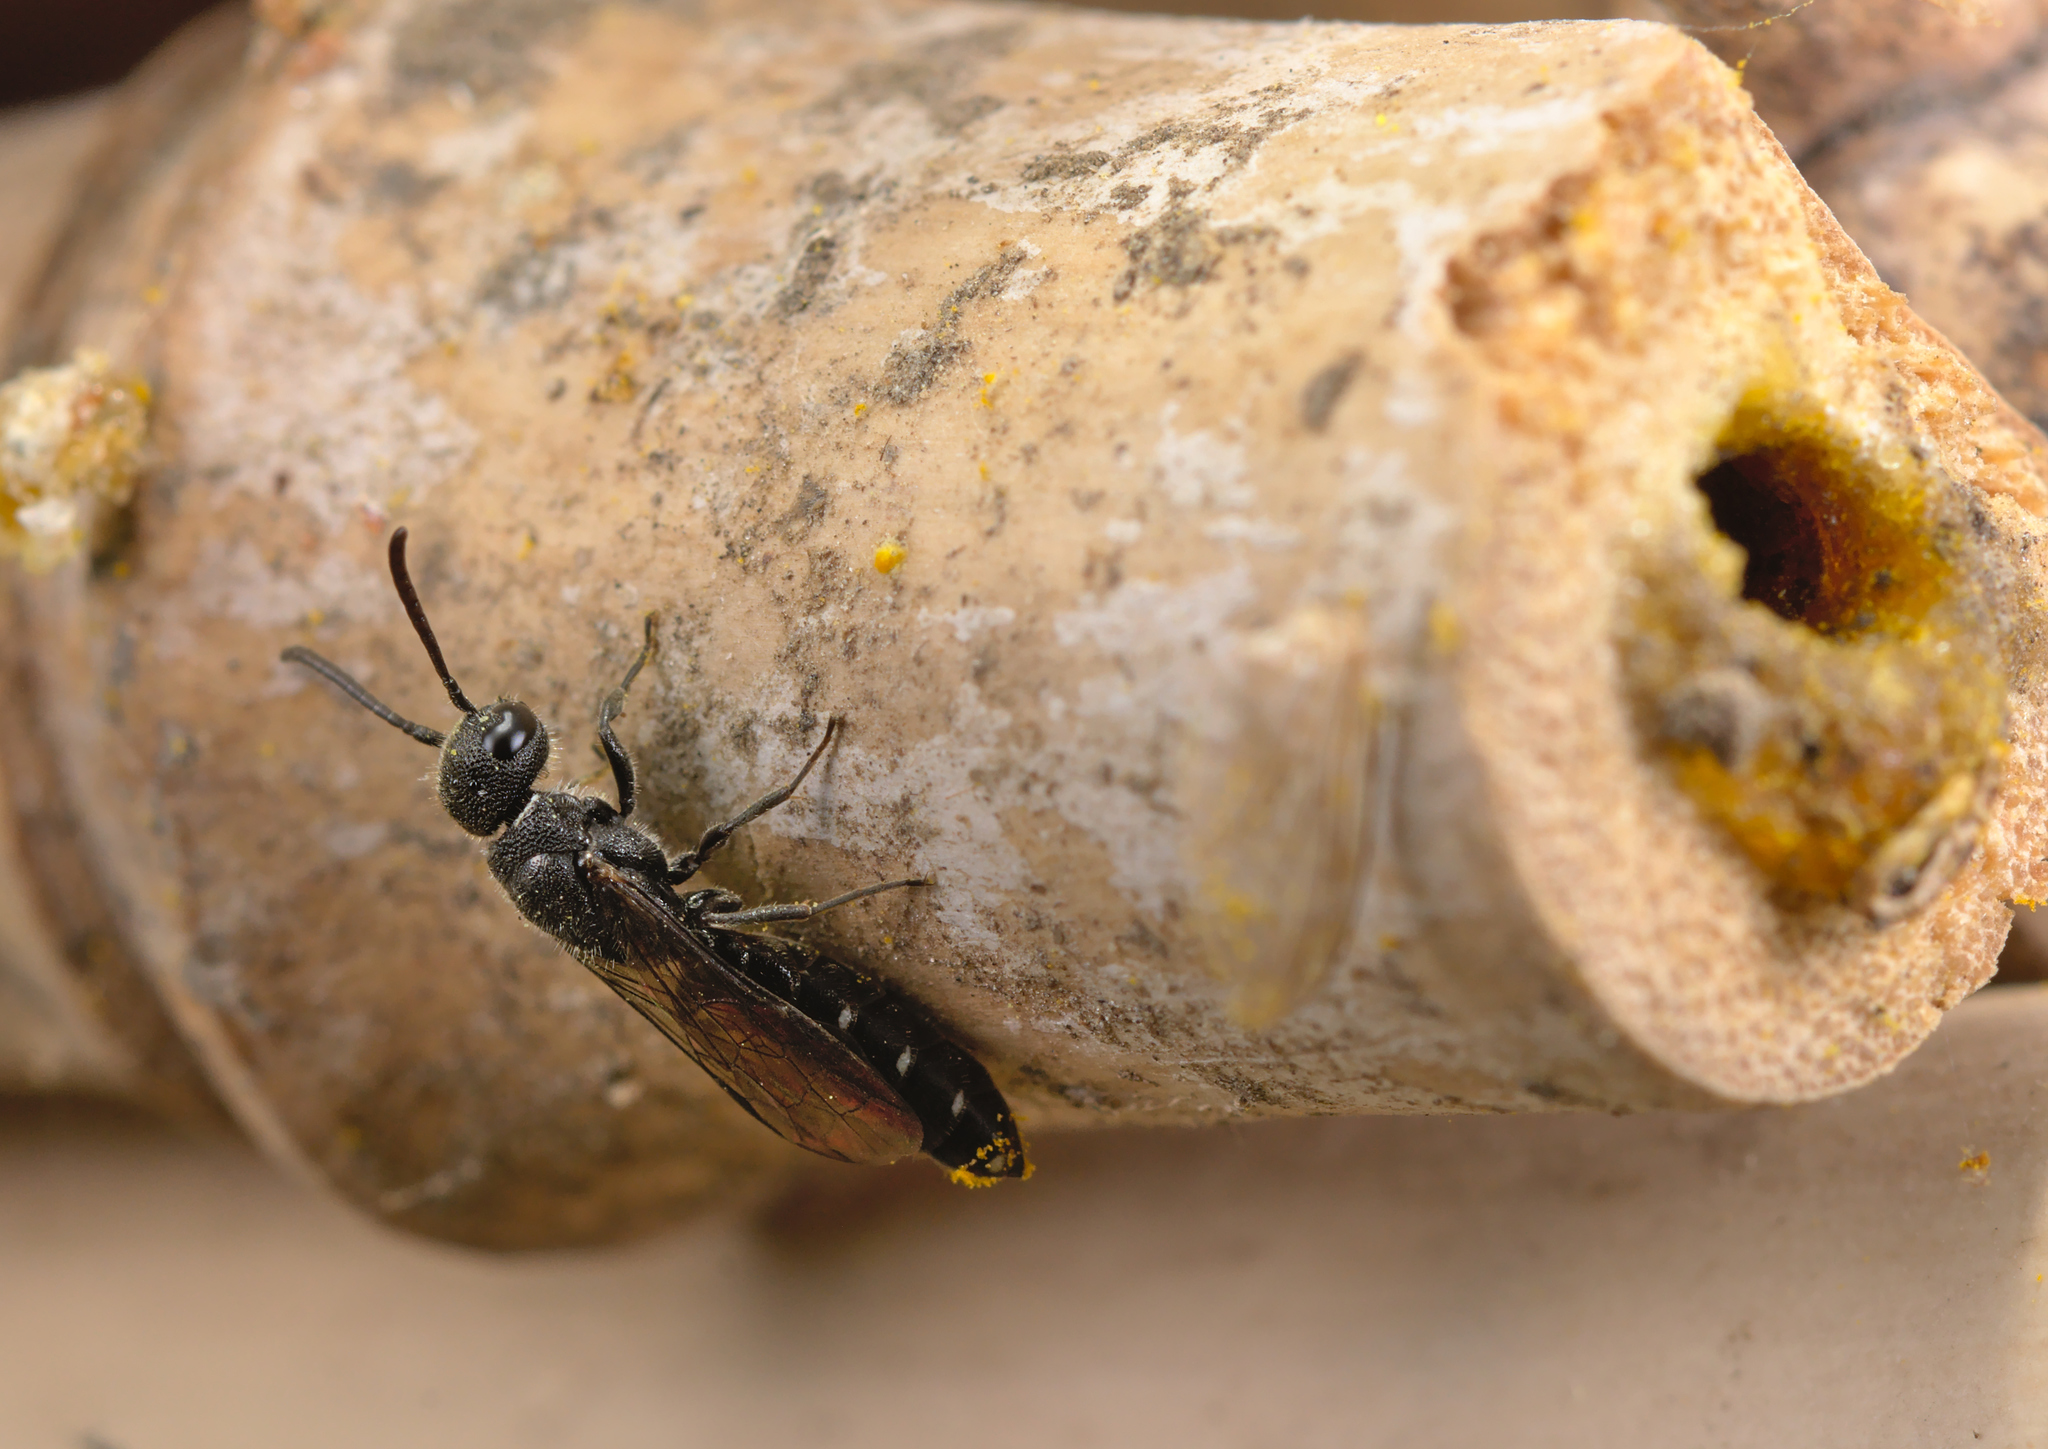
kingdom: Animalia
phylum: Arthropoda
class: Insecta
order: Hymenoptera
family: Sapygidae
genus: Sapygina
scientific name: Sapygina decemguttata
